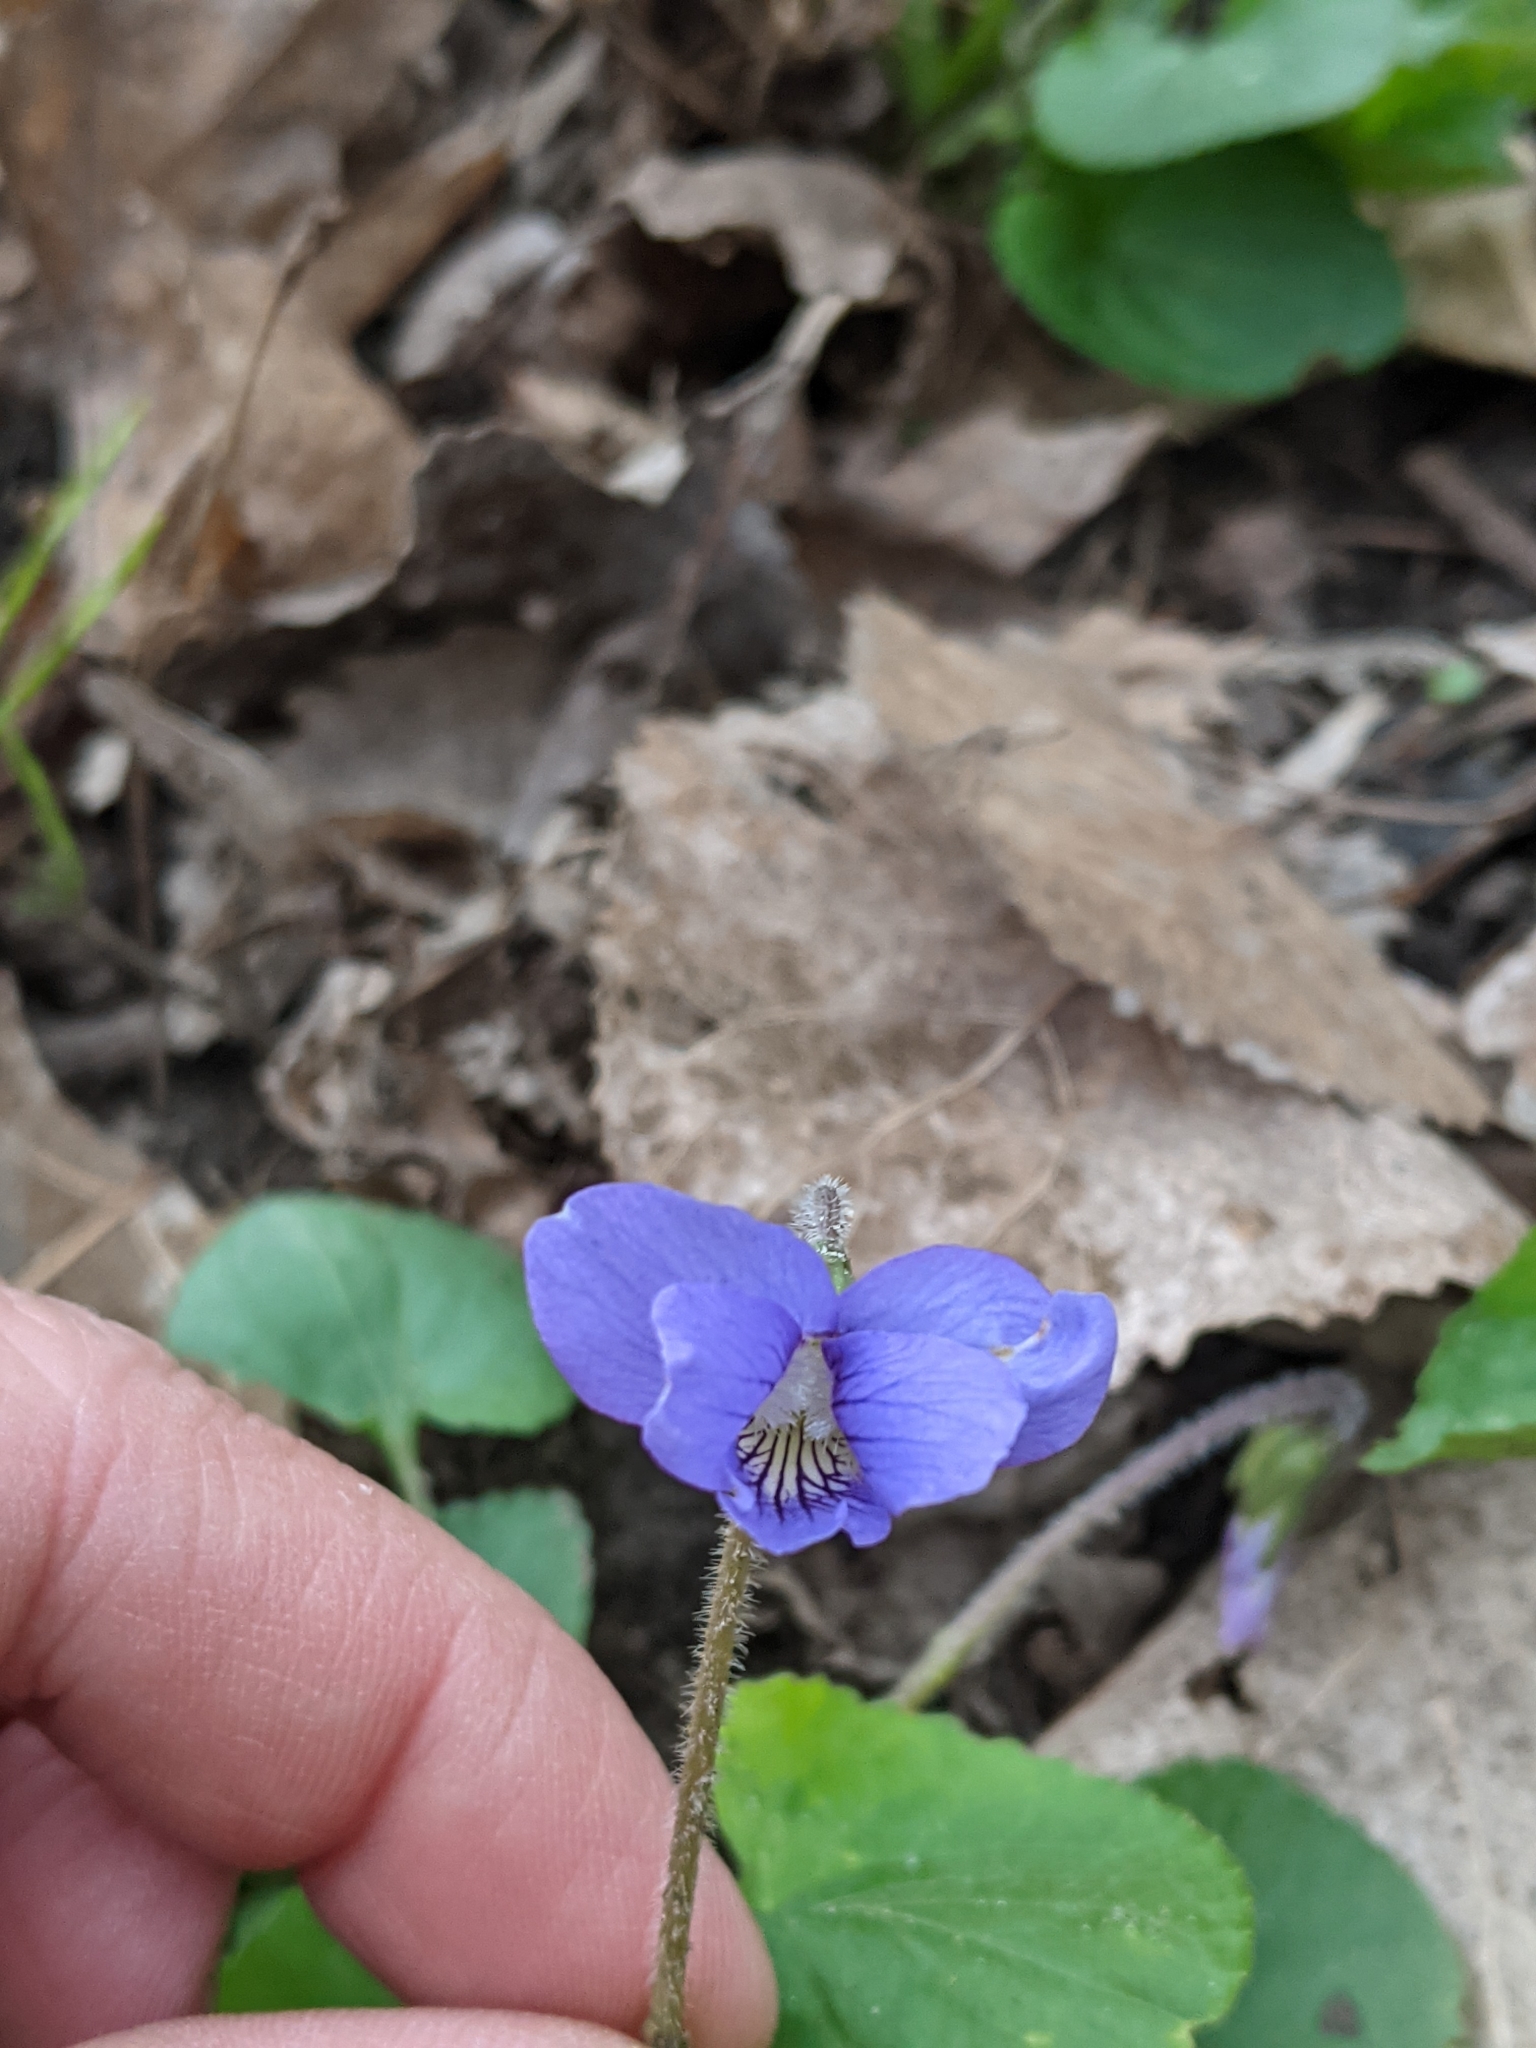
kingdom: Plantae
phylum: Tracheophyta
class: Magnoliopsida
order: Malpighiales
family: Violaceae
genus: Viola
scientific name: Viola sororia
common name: Dooryard violet
